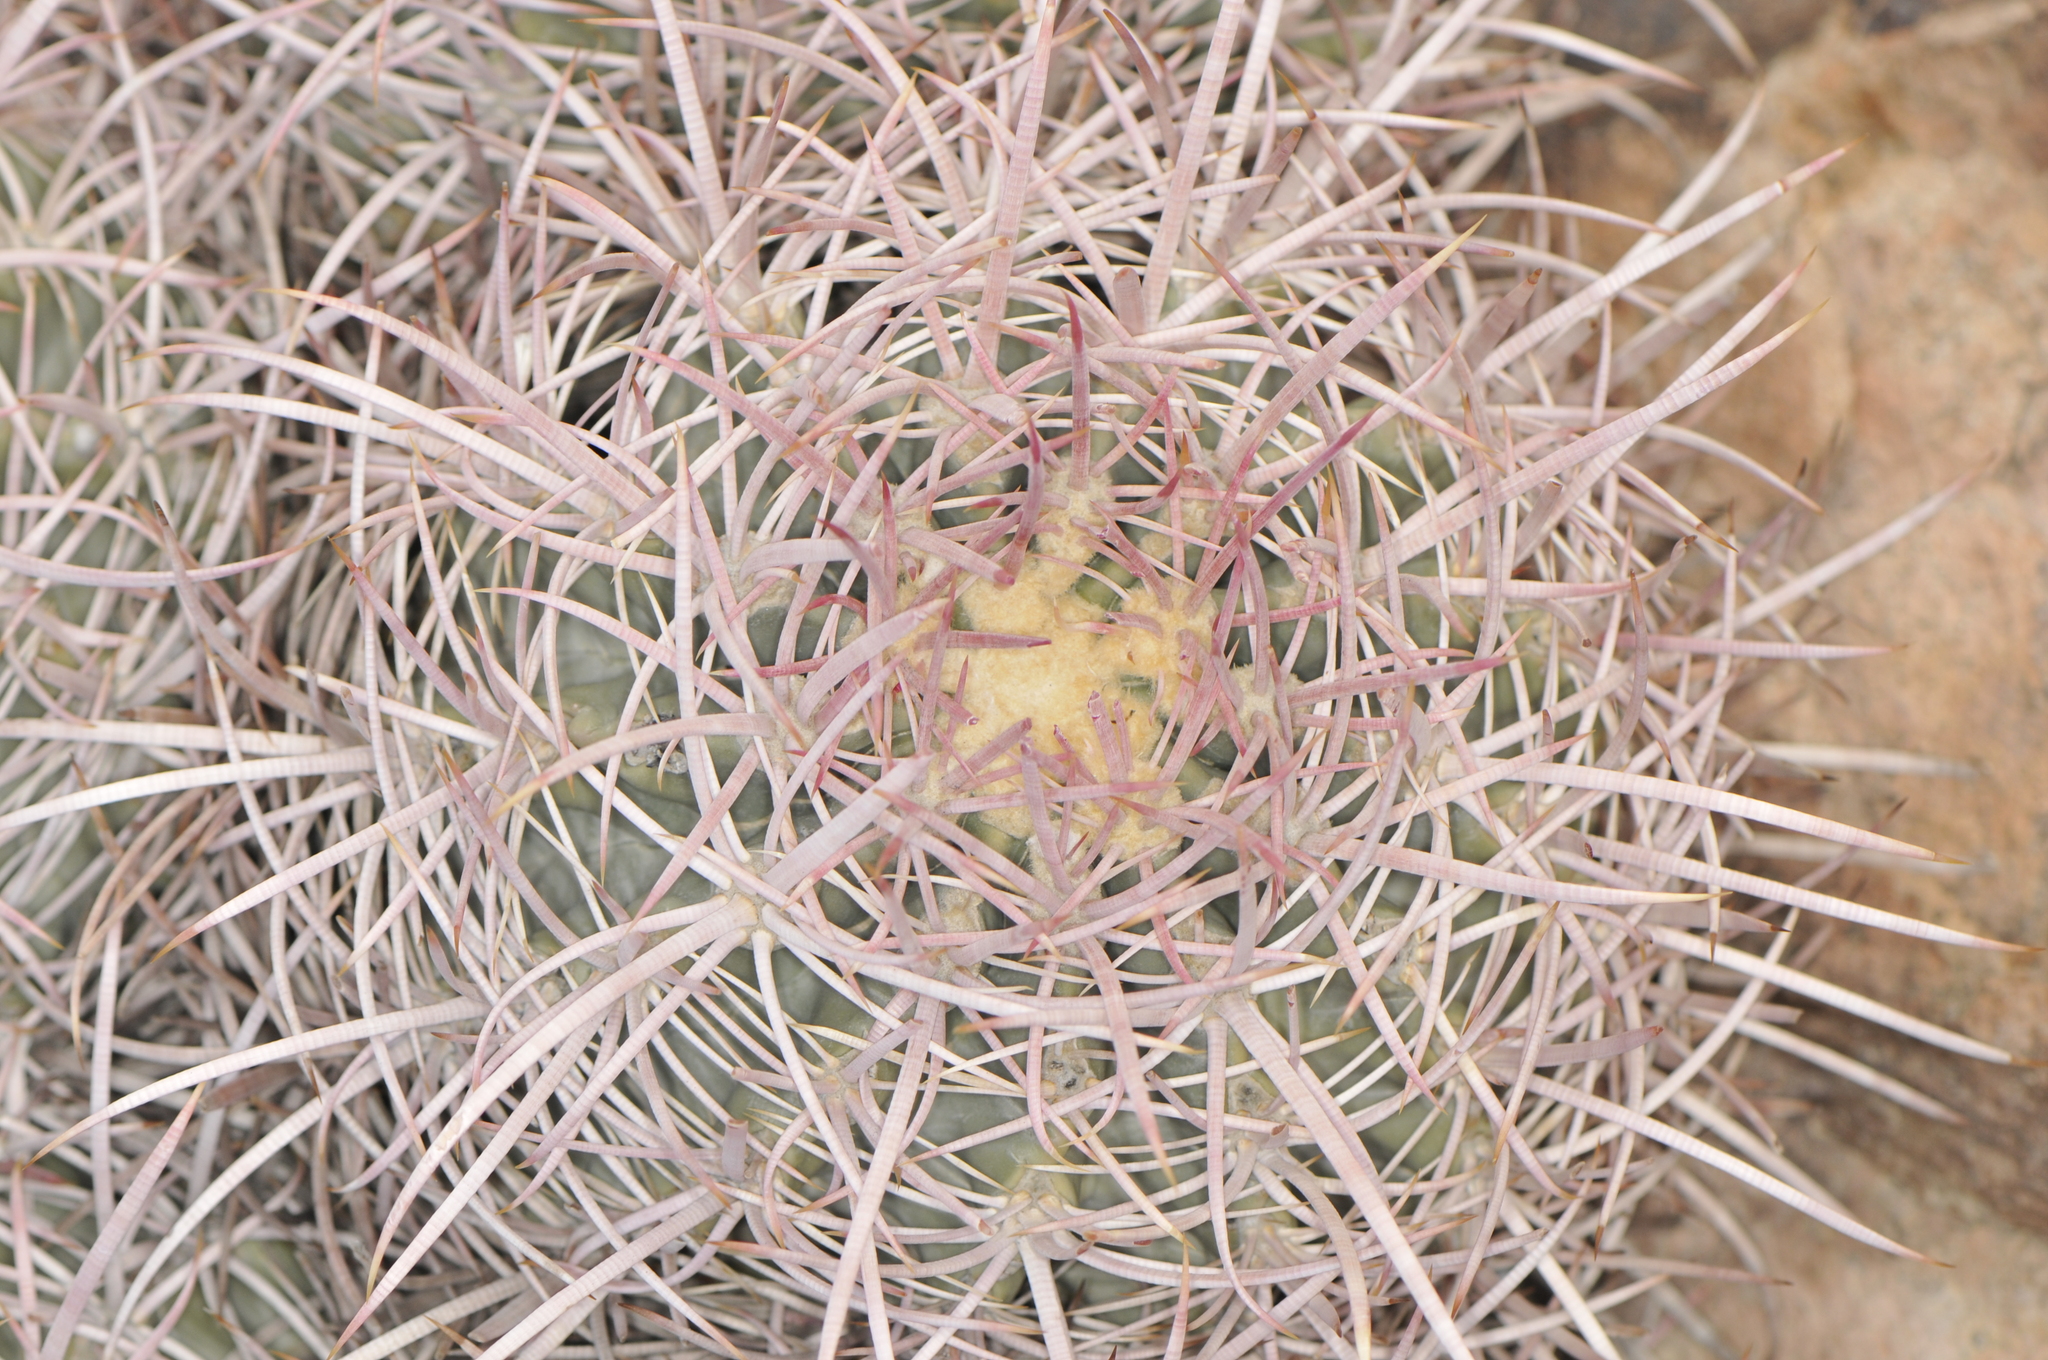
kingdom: Plantae
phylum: Tracheophyta
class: Magnoliopsida
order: Caryophyllales
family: Cactaceae
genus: Echinocactus
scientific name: Echinocactus polycephalus
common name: Cottontop cactus
